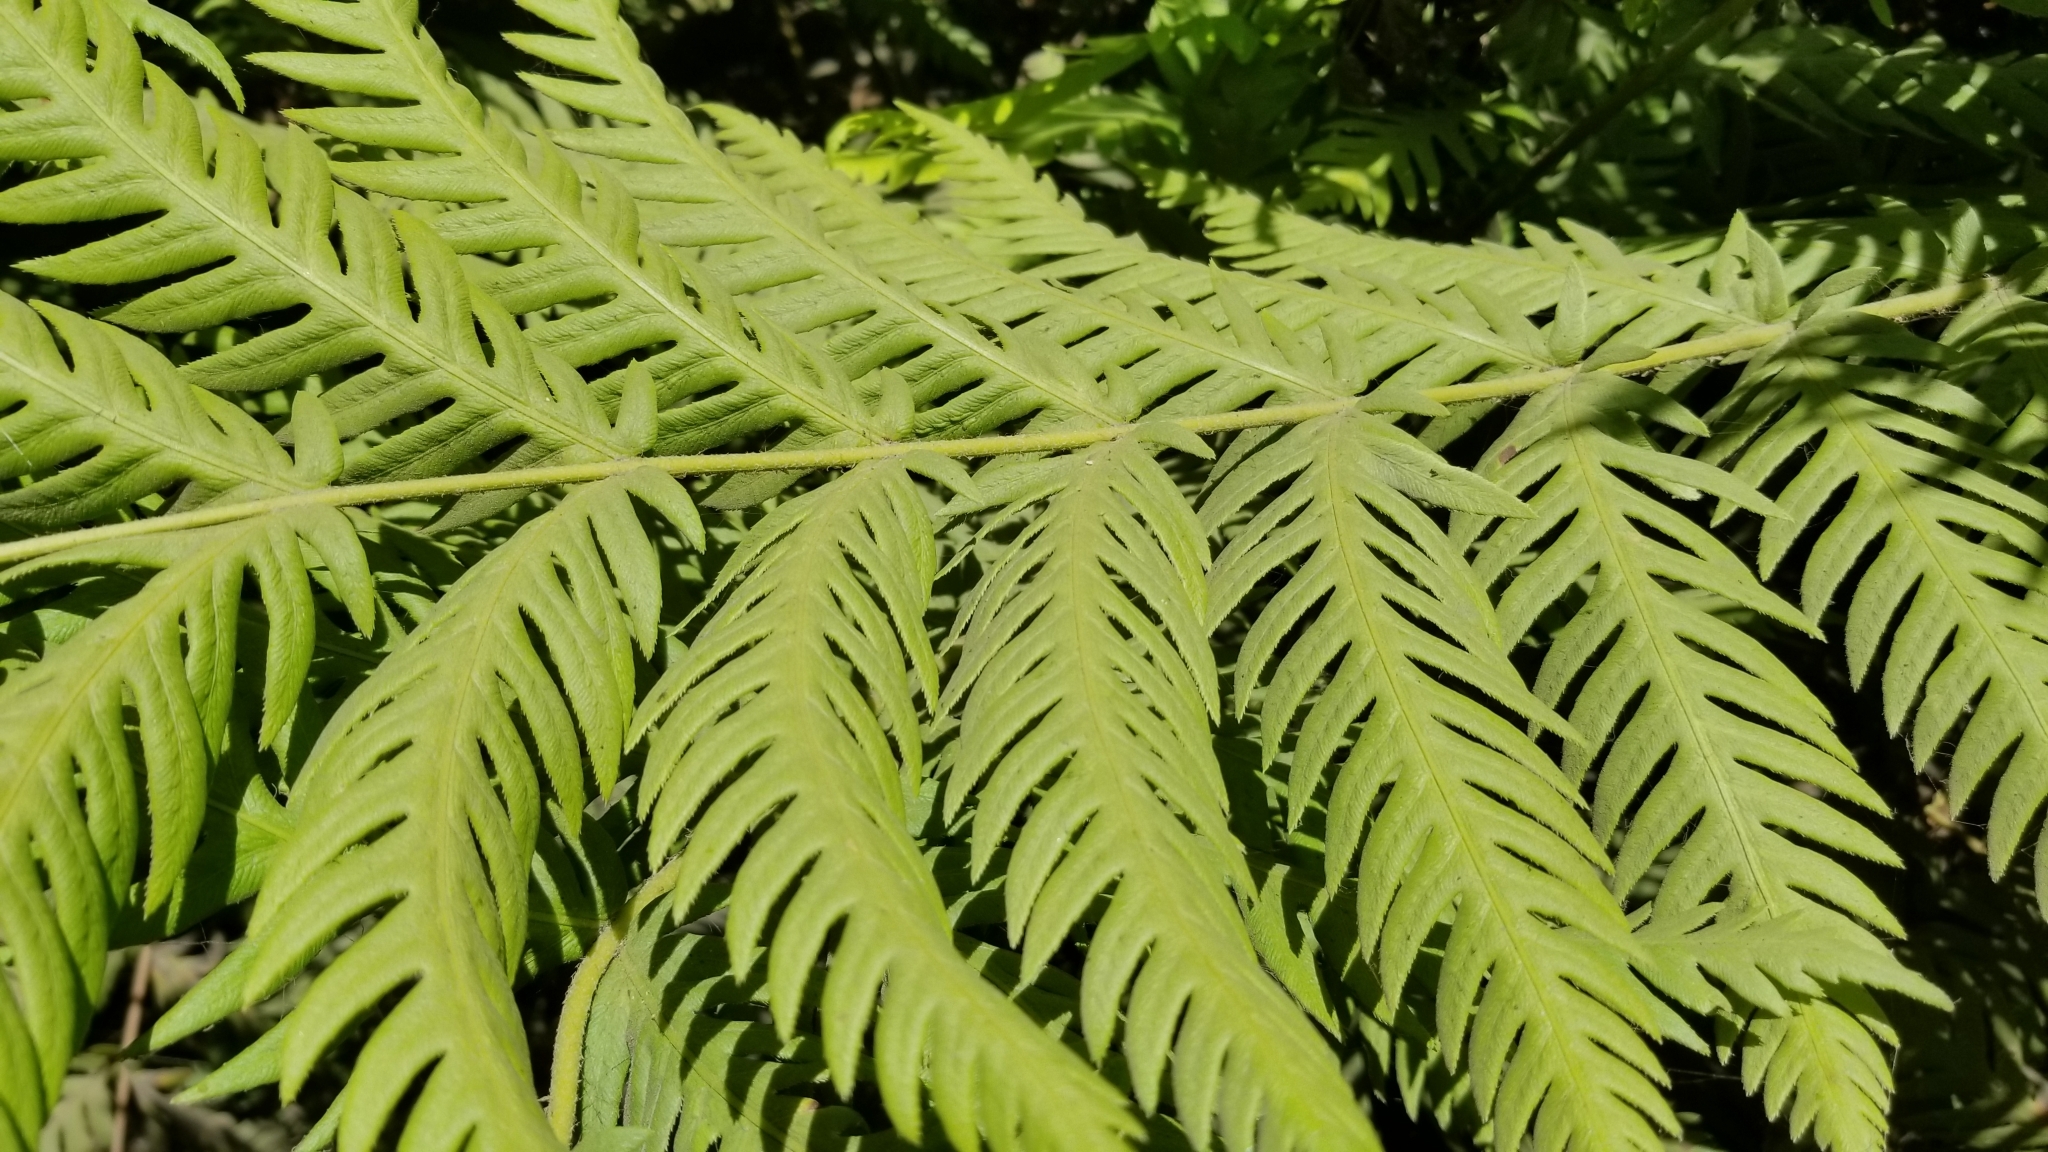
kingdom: Plantae
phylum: Tracheophyta
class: Polypodiopsida
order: Polypodiales
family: Blechnaceae
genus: Woodwardia
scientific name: Woodwardia fimbriata
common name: Giant chain fern
